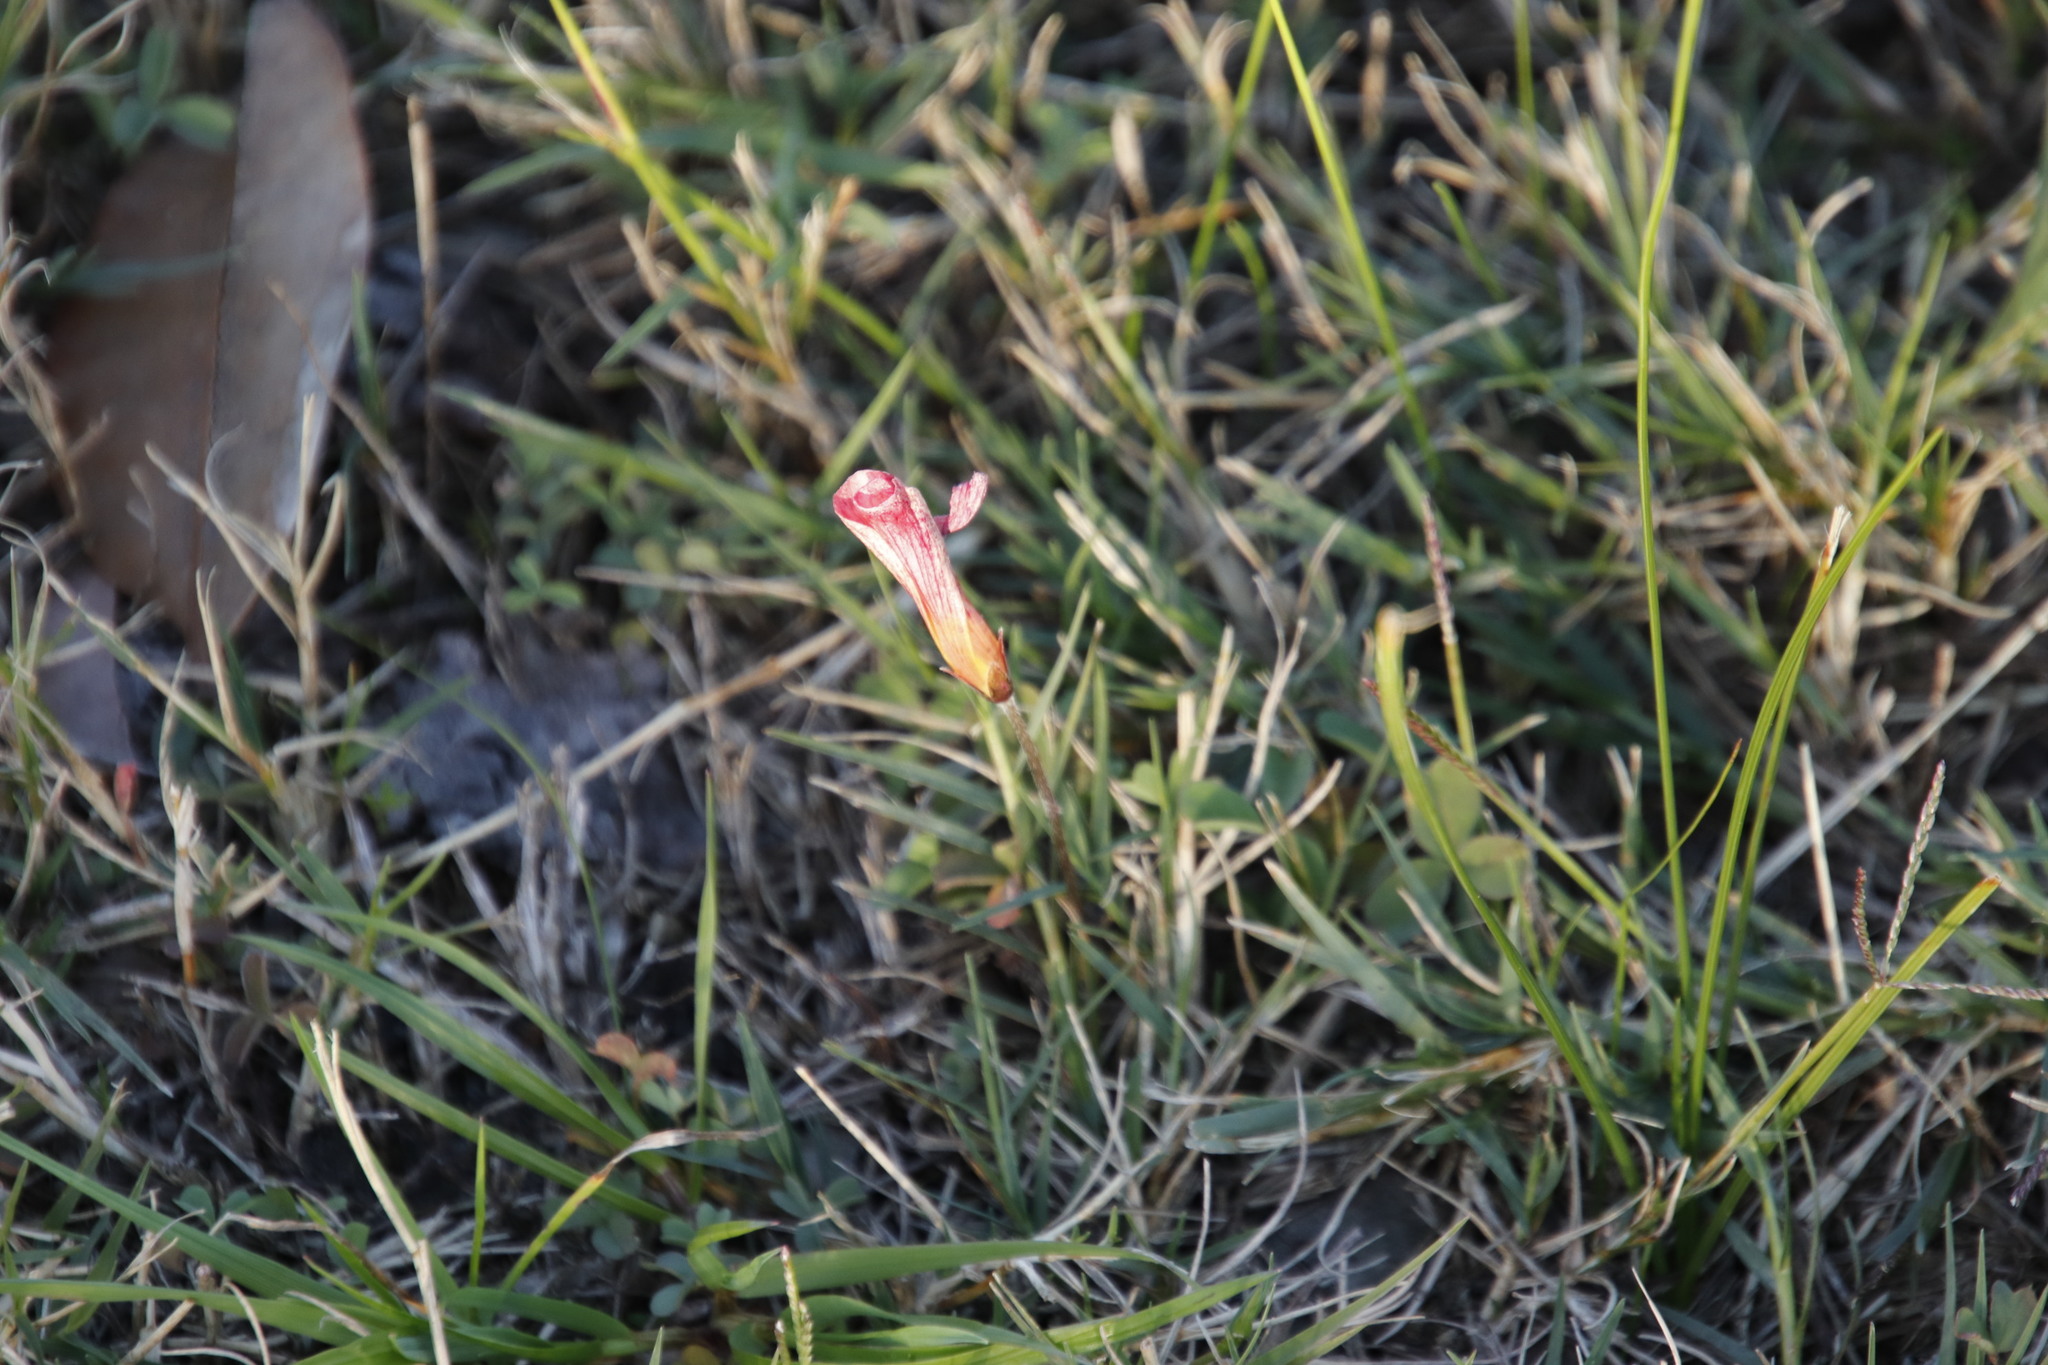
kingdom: Plantae
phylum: Tracheophyta
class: Magnoliopsida
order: Oxalidales
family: Oxalidaceae
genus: Oxalis
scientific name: Oxalis obtusa
